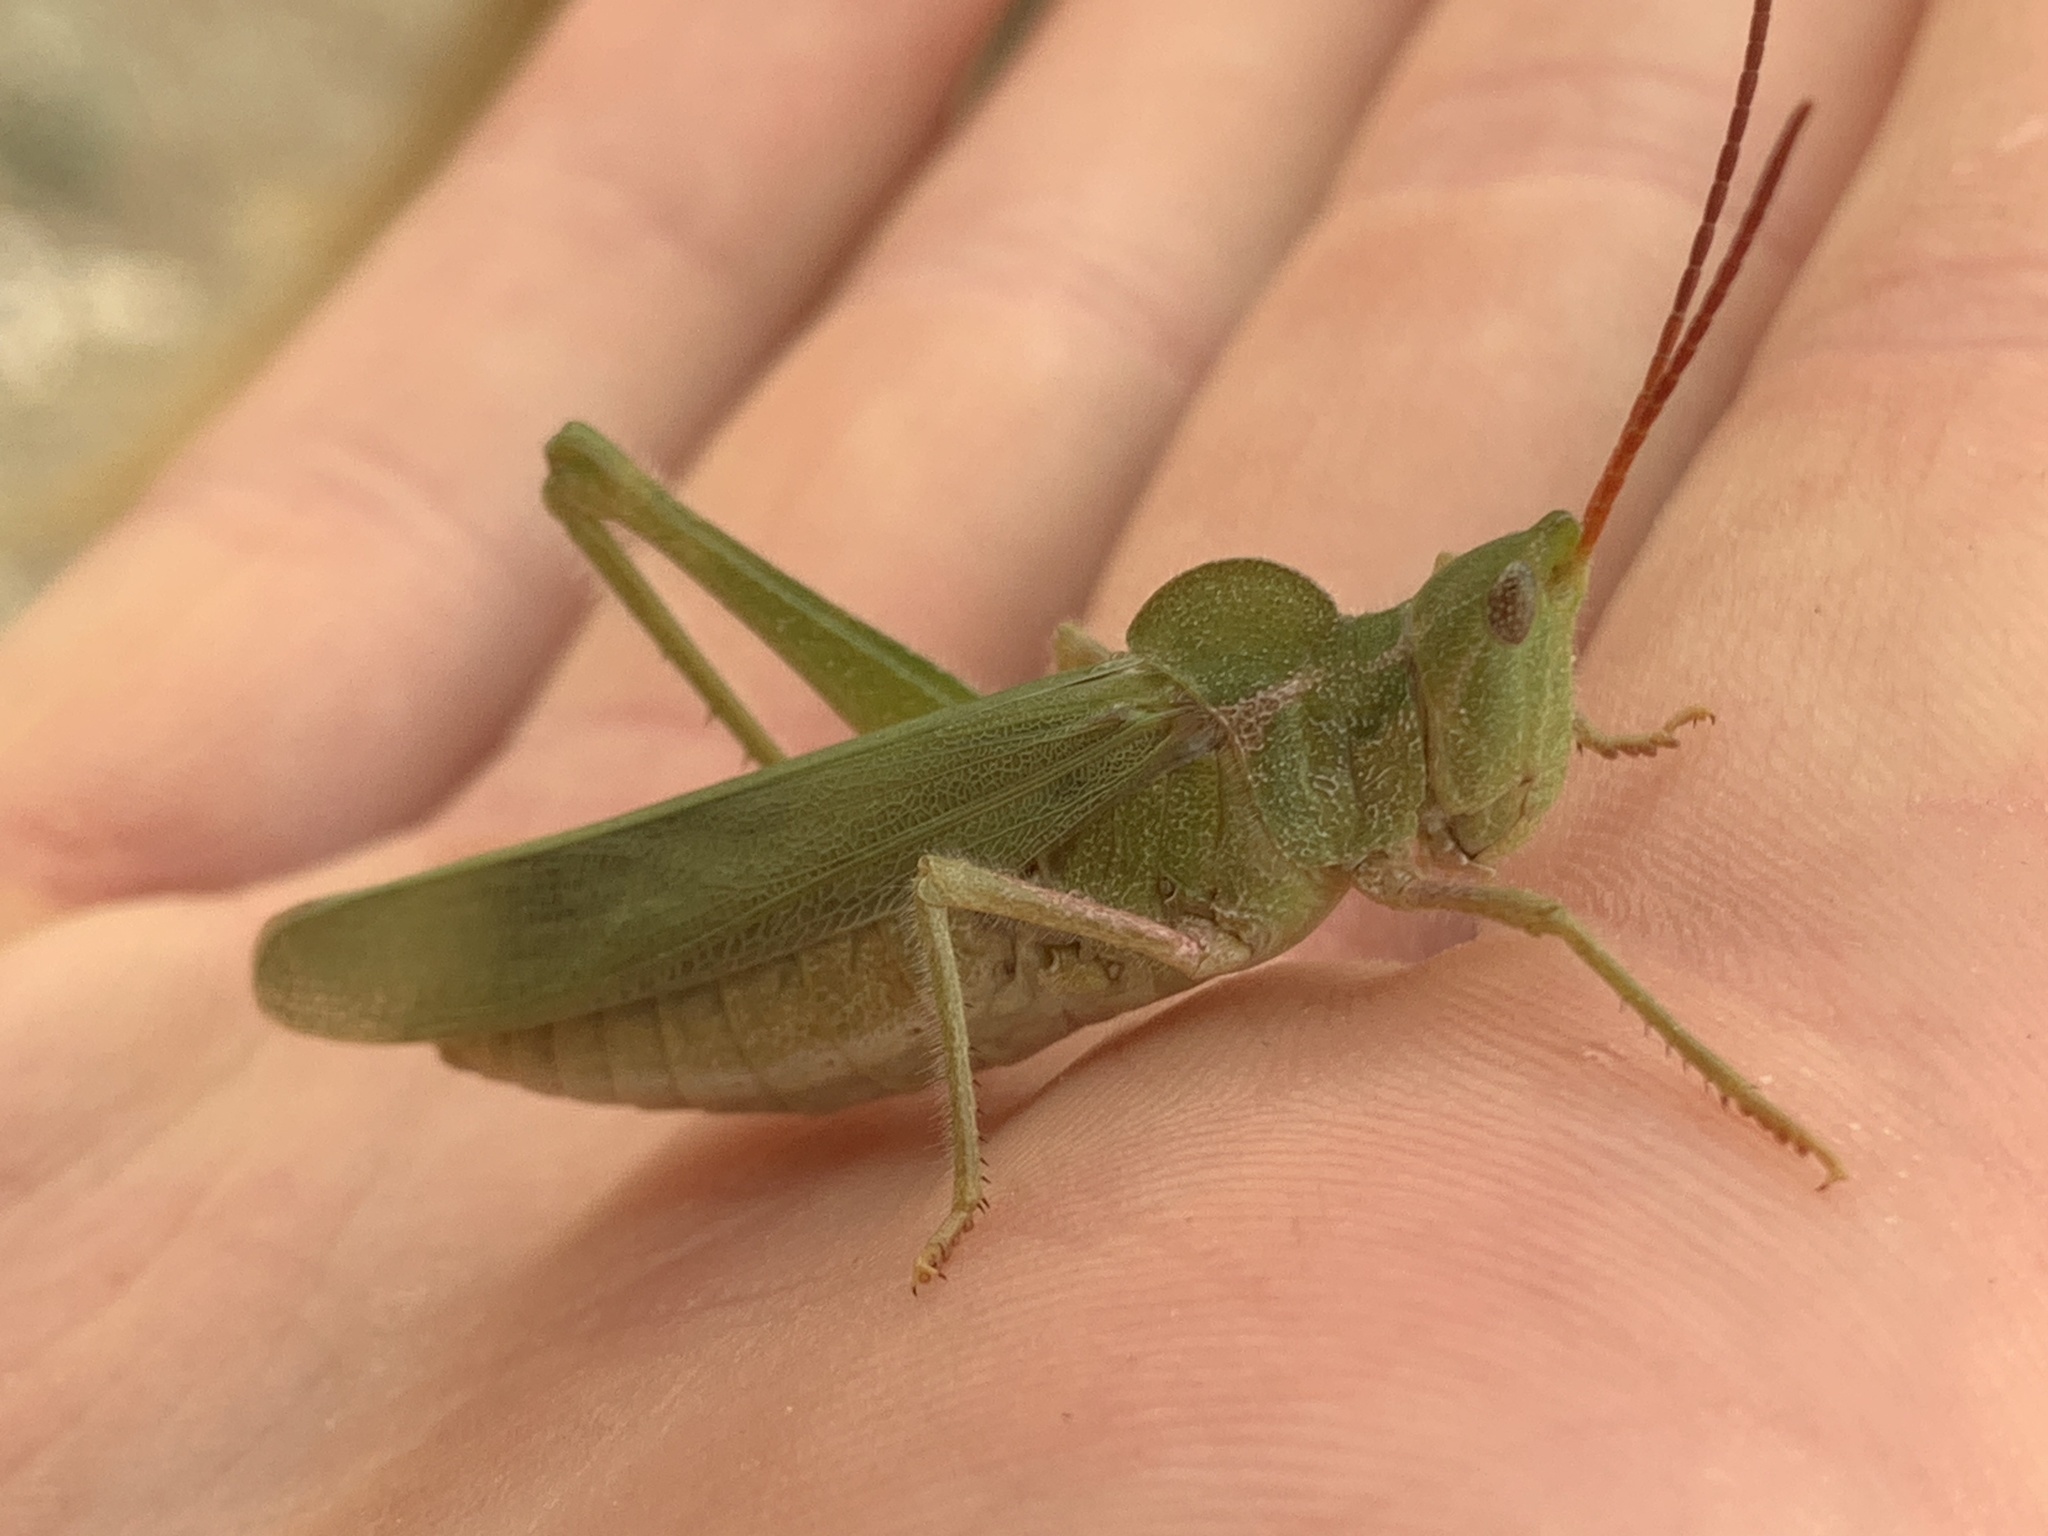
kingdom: Animalia
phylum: Arthropoda
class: Insecta
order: Orthoptera
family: Acrididae
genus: Acrolophitus
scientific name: Acrolophitus hirtipes
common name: Green fool grasshopper
